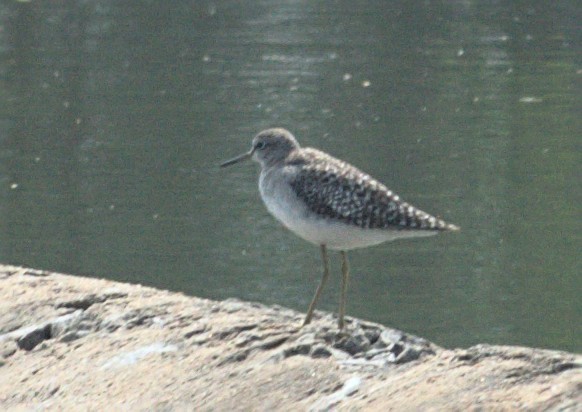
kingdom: Animalia
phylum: Chordata
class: Aves
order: Charadriiformes
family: Scolopacidae
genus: Tringa
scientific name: Tringa glareola
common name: Wood sandpiper
